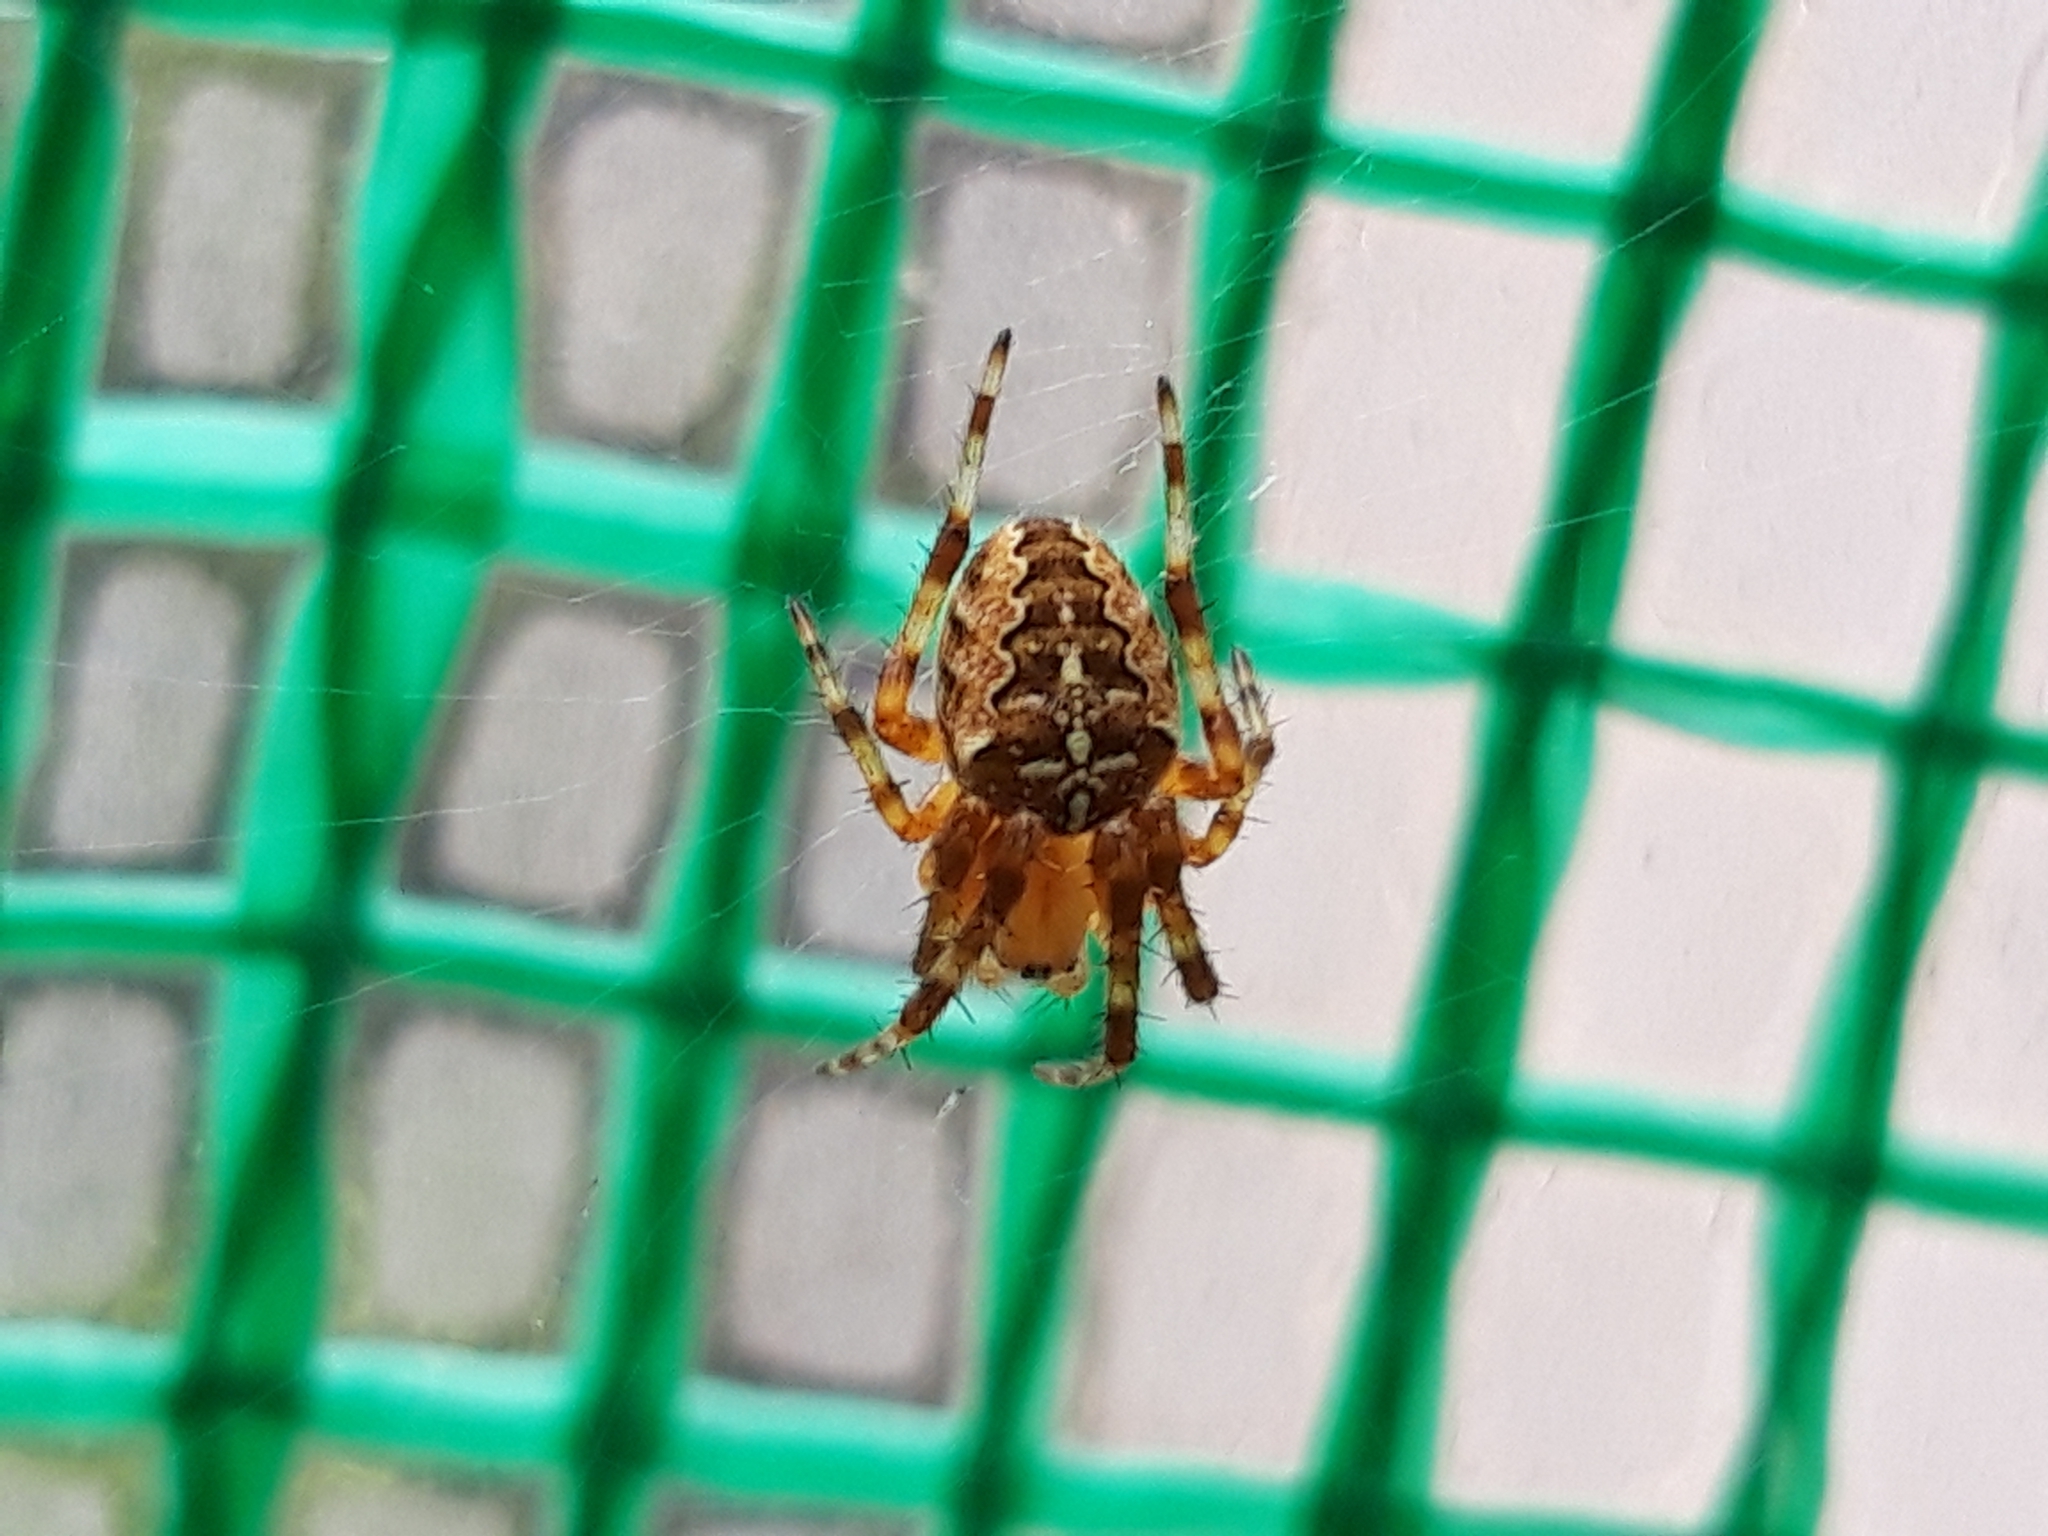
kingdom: Animalia
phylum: Arthropoda
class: Arachnida
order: Araneae
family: Araneidae
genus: Araneus
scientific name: Araneus diadematus
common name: Cross orbweaver
